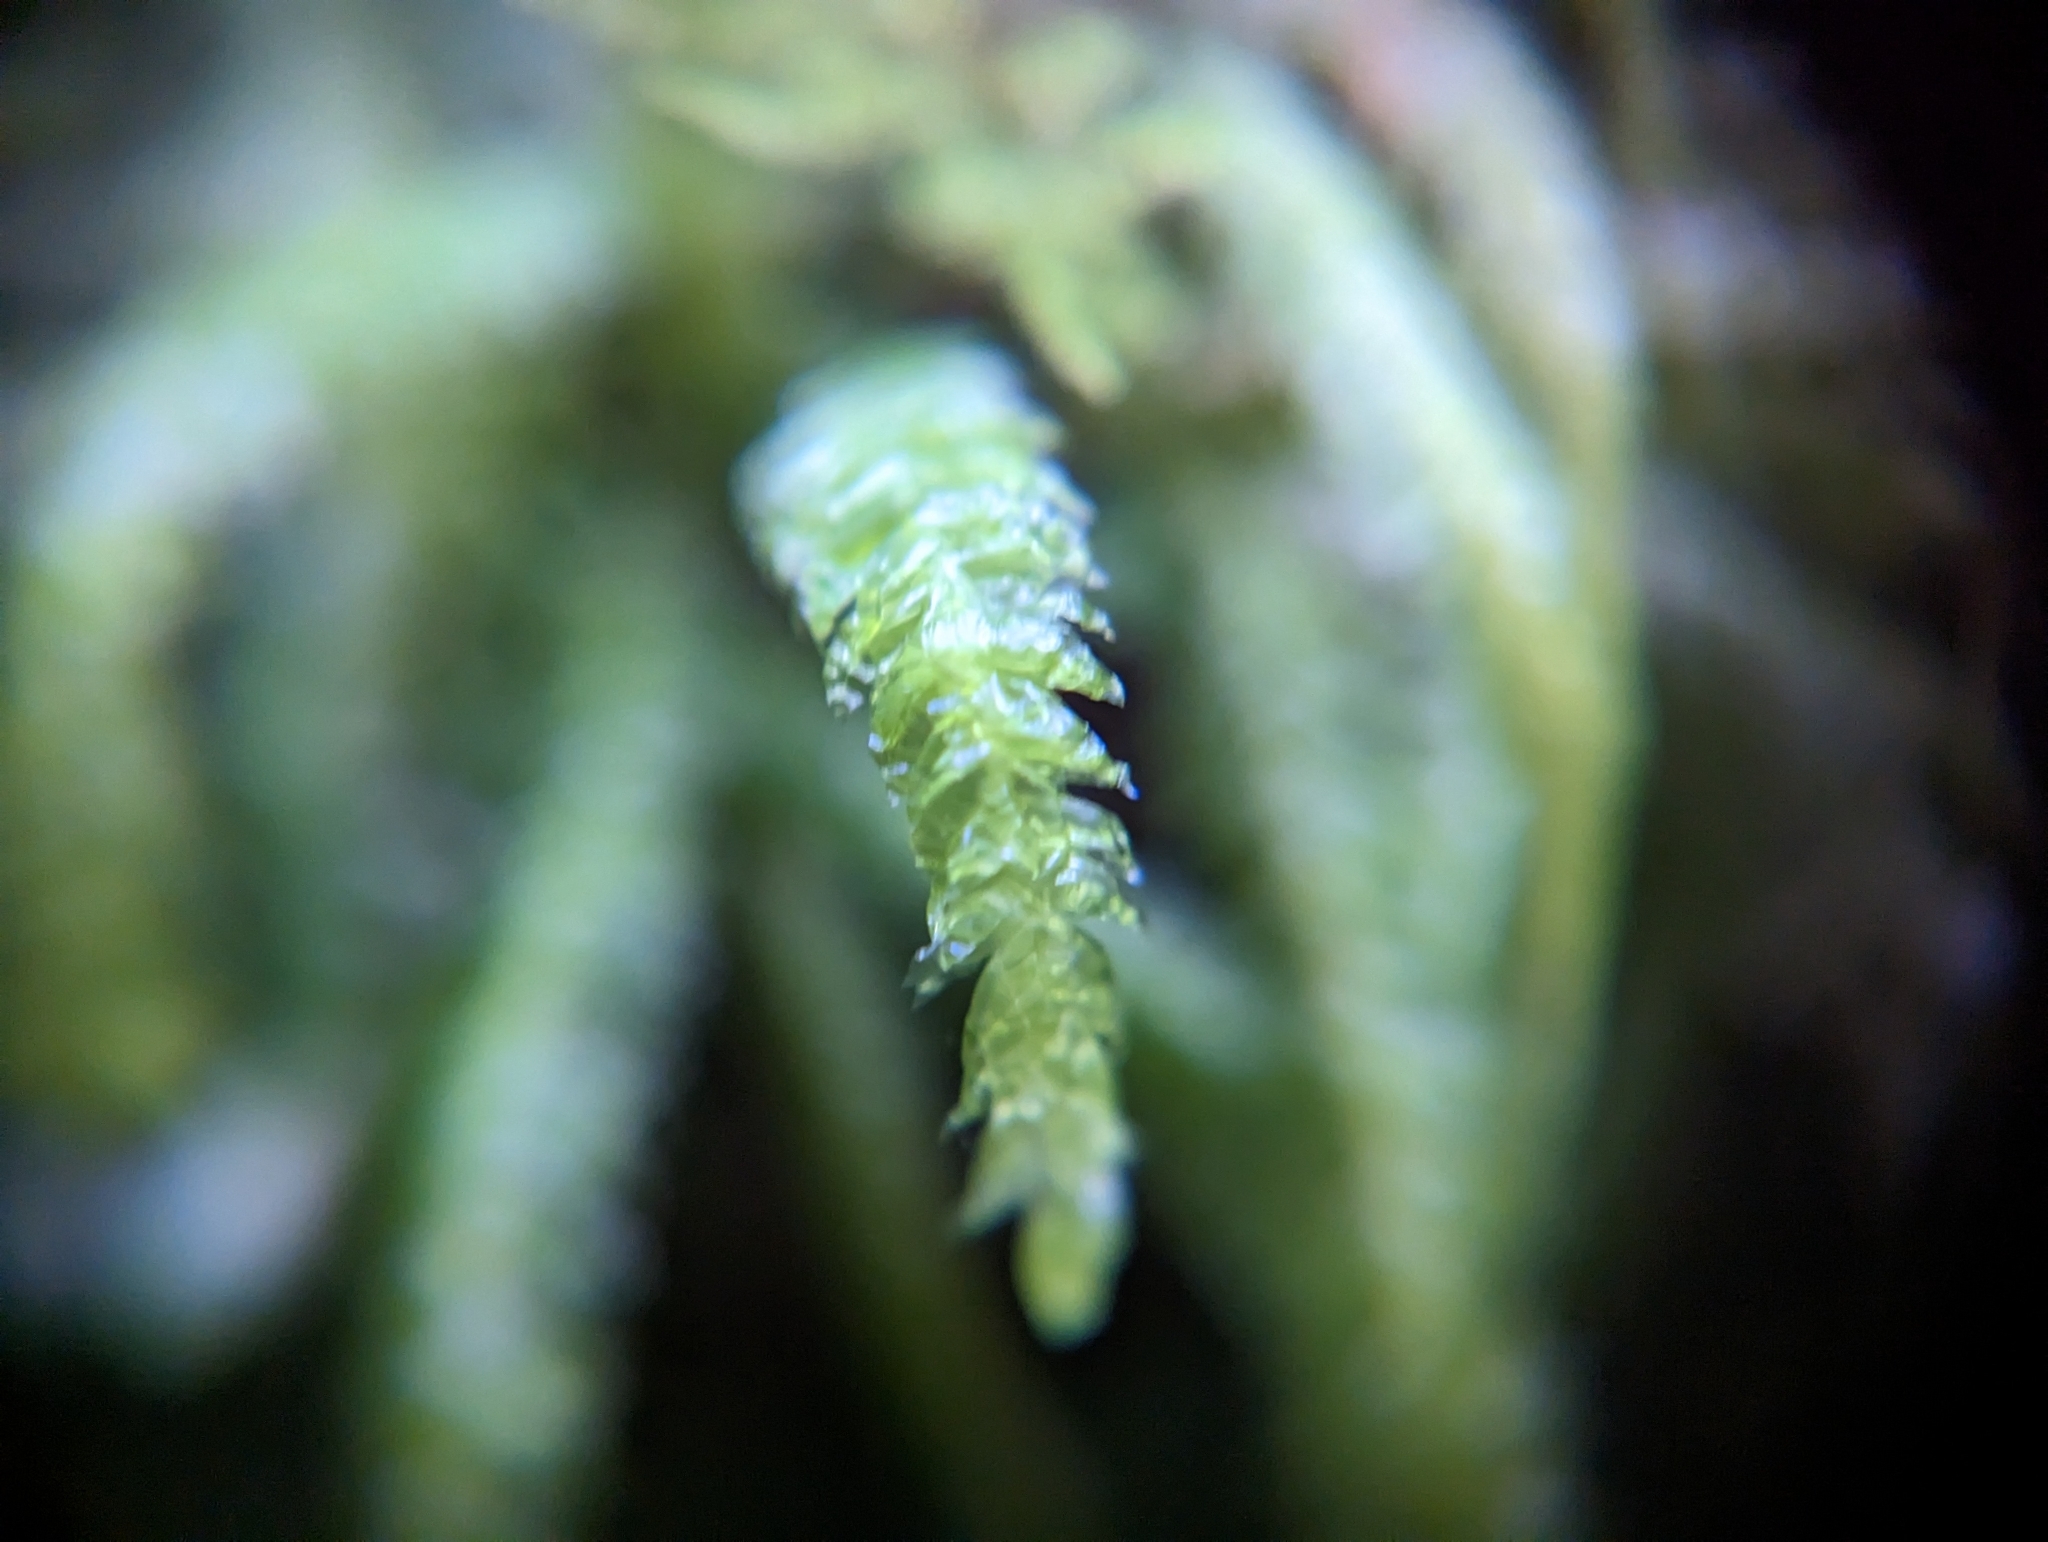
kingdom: Plantae
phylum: Bryophyta
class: Bryopsida
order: Hypnales
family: Plagiotheciaceae
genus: Plagiothecium
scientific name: Plagiothecium undulatum
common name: Waved silk-moss
